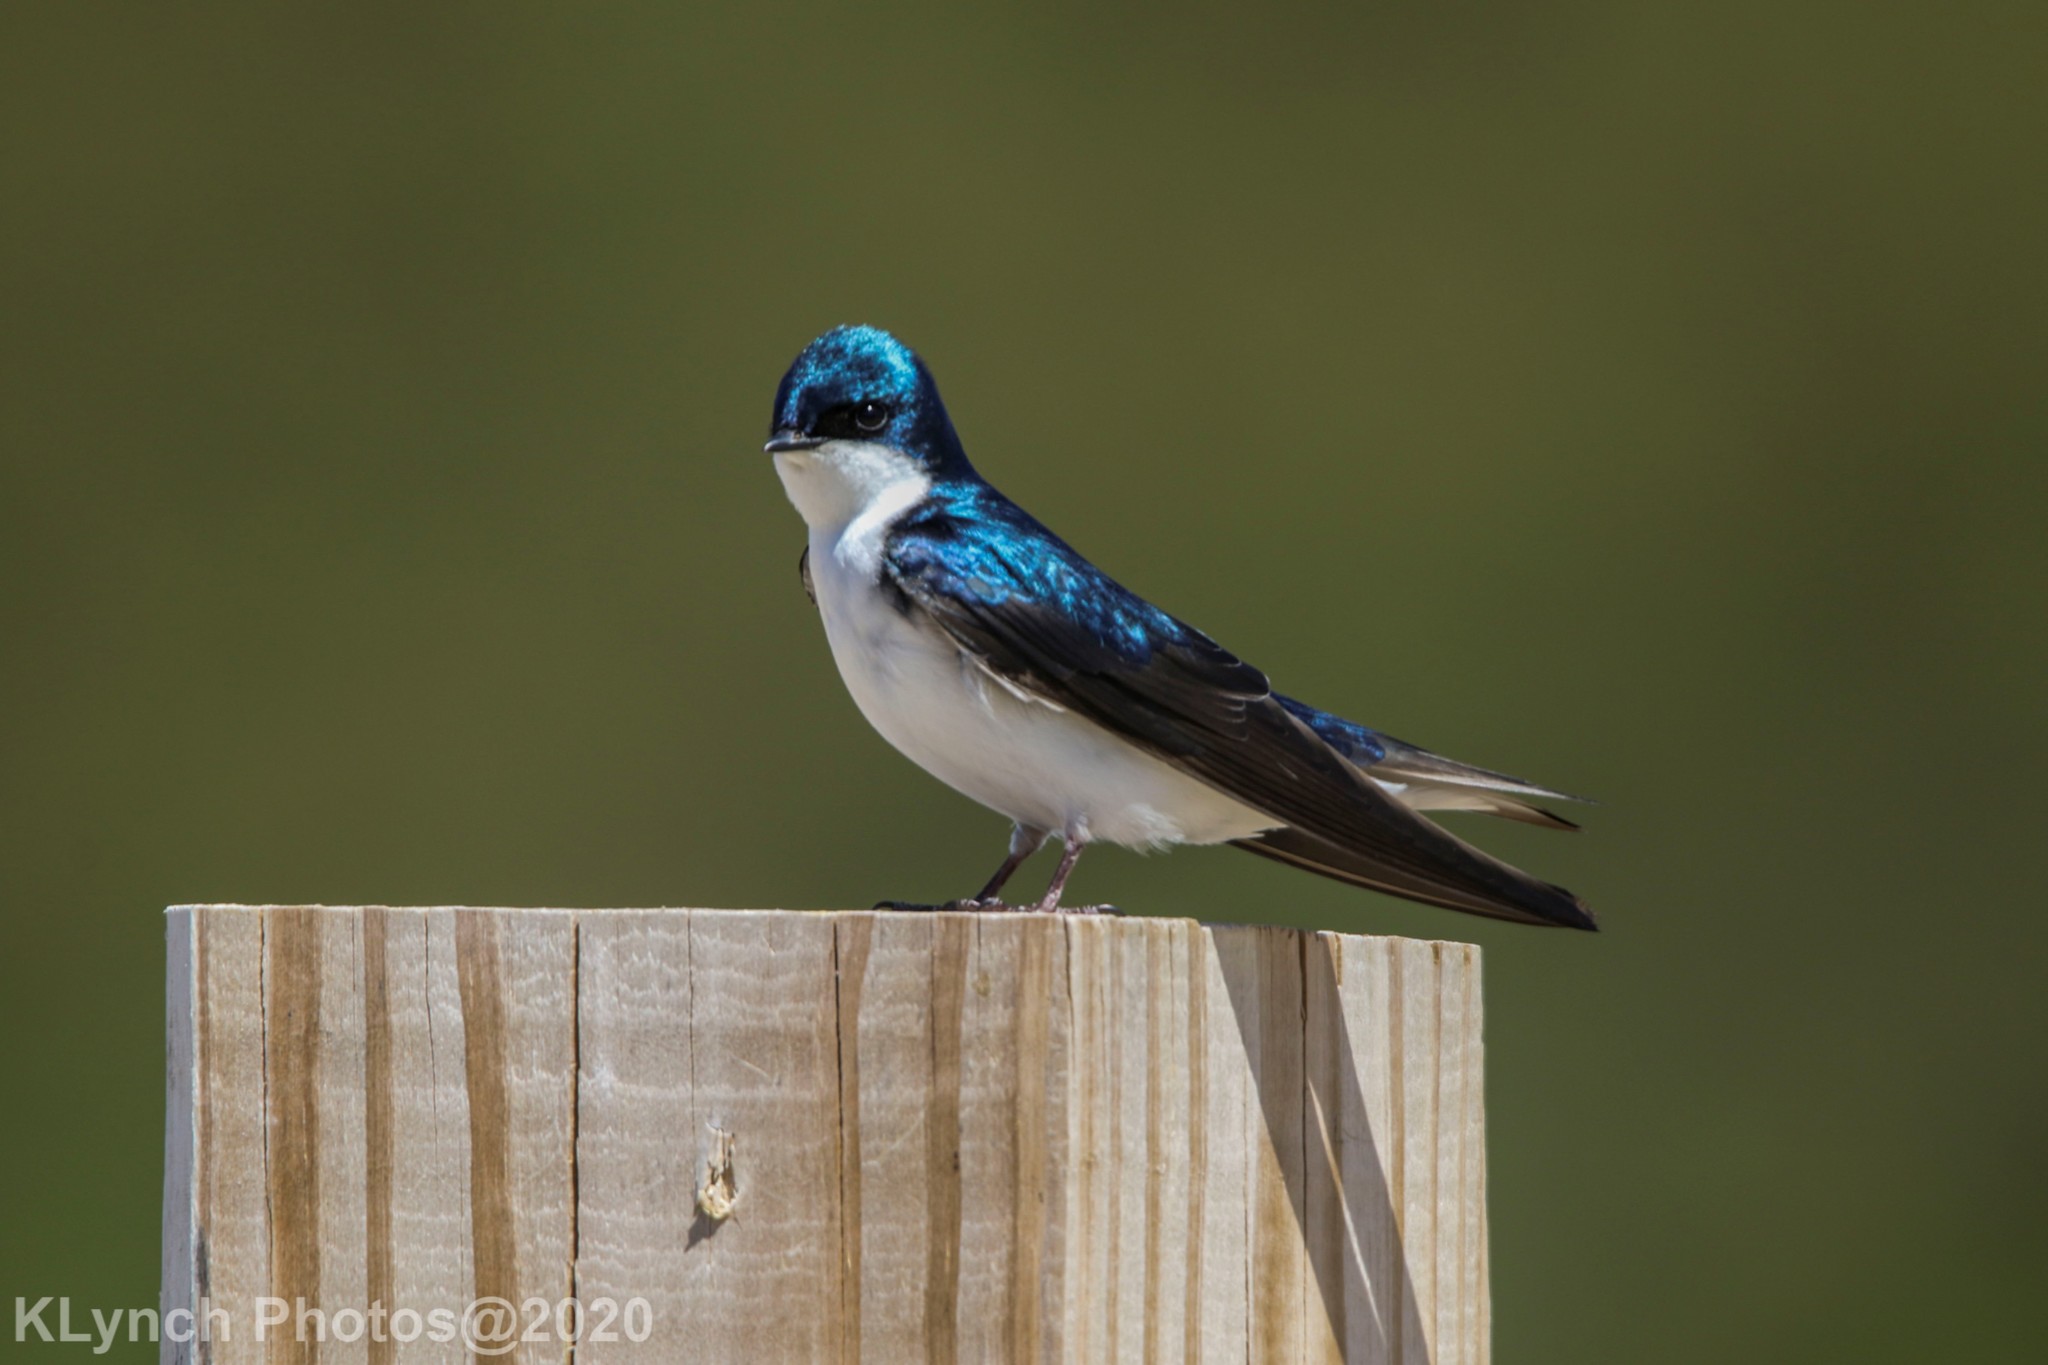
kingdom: Animalia
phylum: Chordata
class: Aves
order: Passeriformes
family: Hirundinidae
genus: Tachycineta
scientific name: Tachycineta bicolor
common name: Tree swallow
